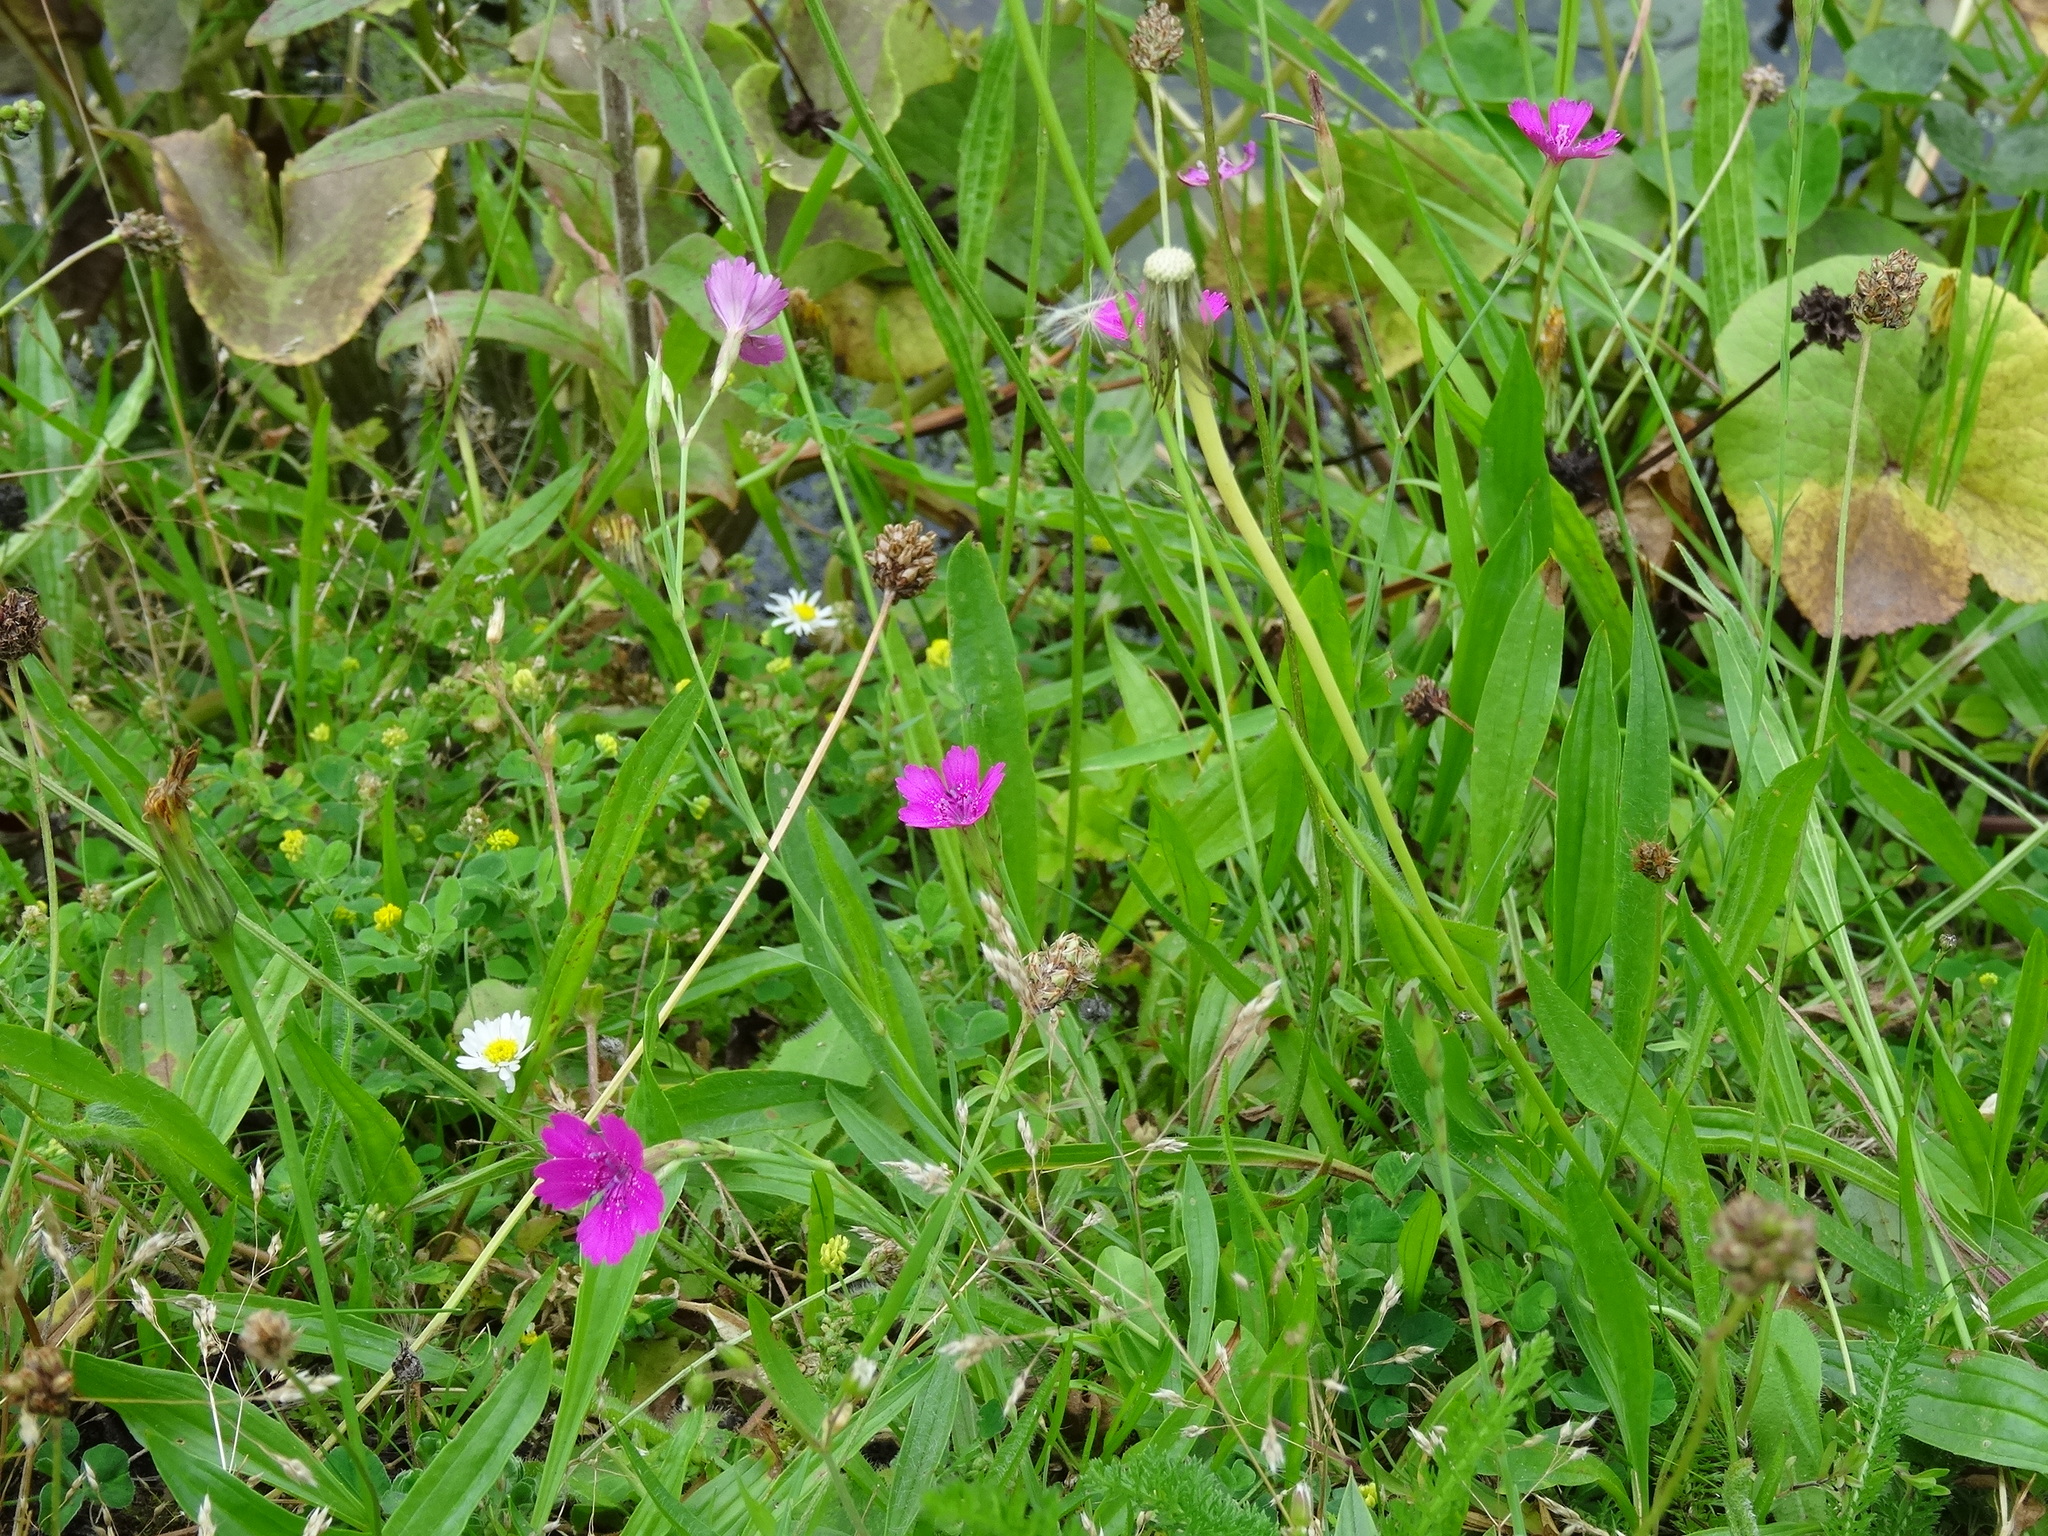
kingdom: Plantae
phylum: Tracheophyta
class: Magnoliopsida
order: Caryophyllales
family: Caryophyllaceae
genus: Dianthus
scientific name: Dianthus deltoides
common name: Maiden pink
